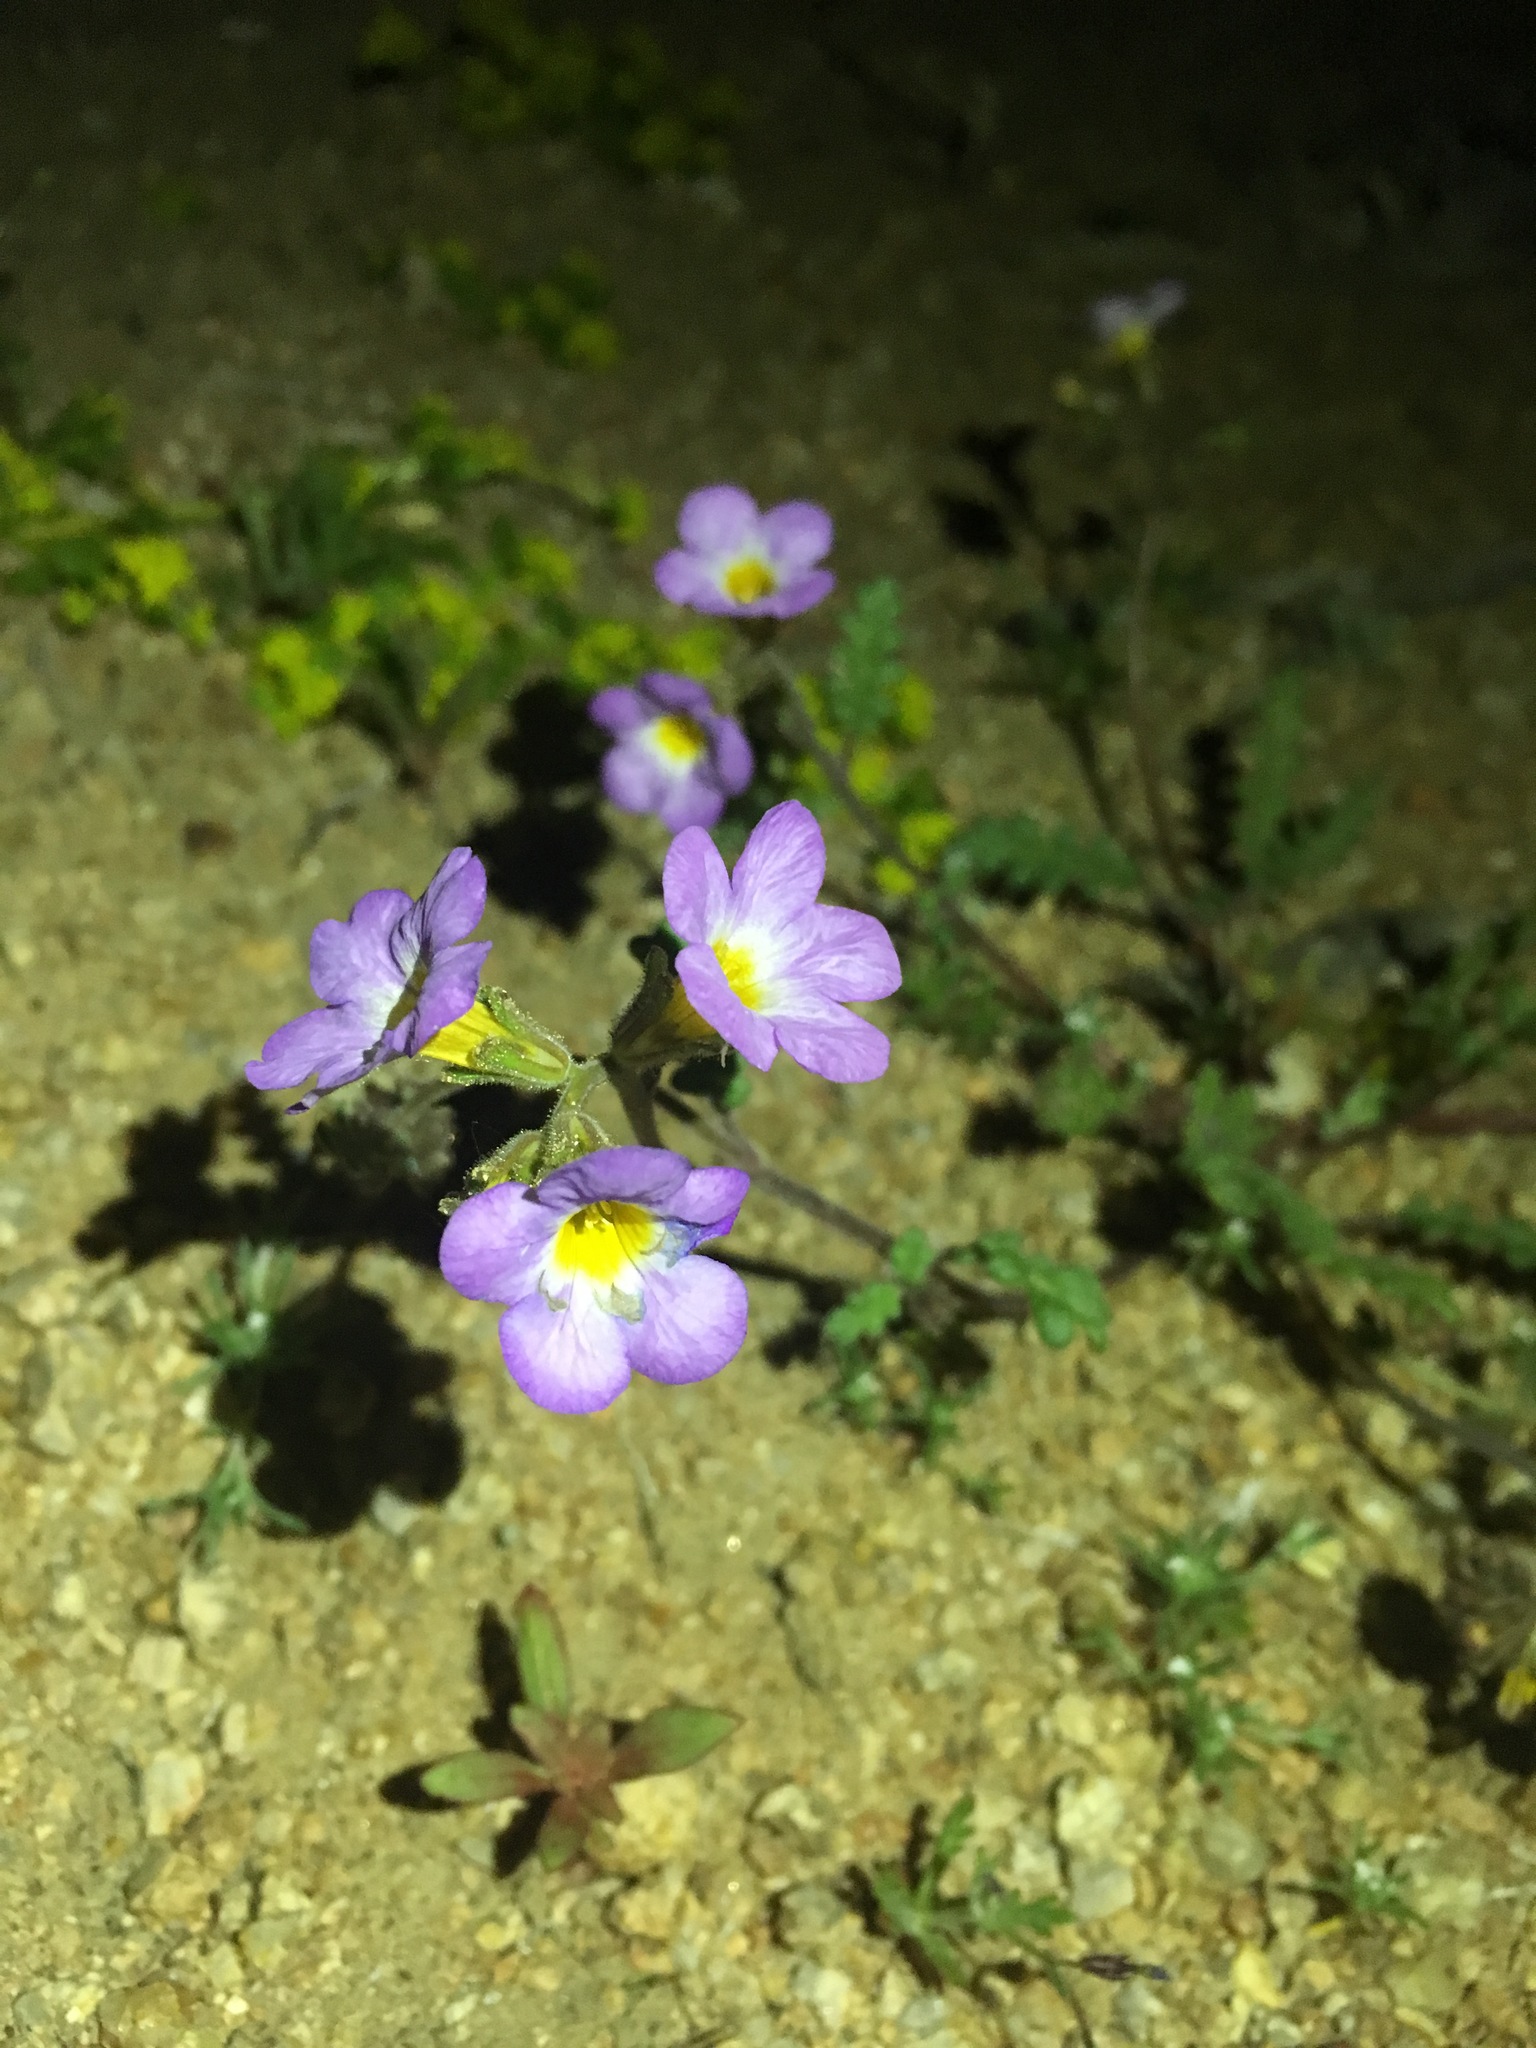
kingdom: Plantae
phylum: Tracheophyta
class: Magnoliopsida
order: Boraginales
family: Hydrophyllaceae
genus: Phacelia
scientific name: Phacelia fremontii
